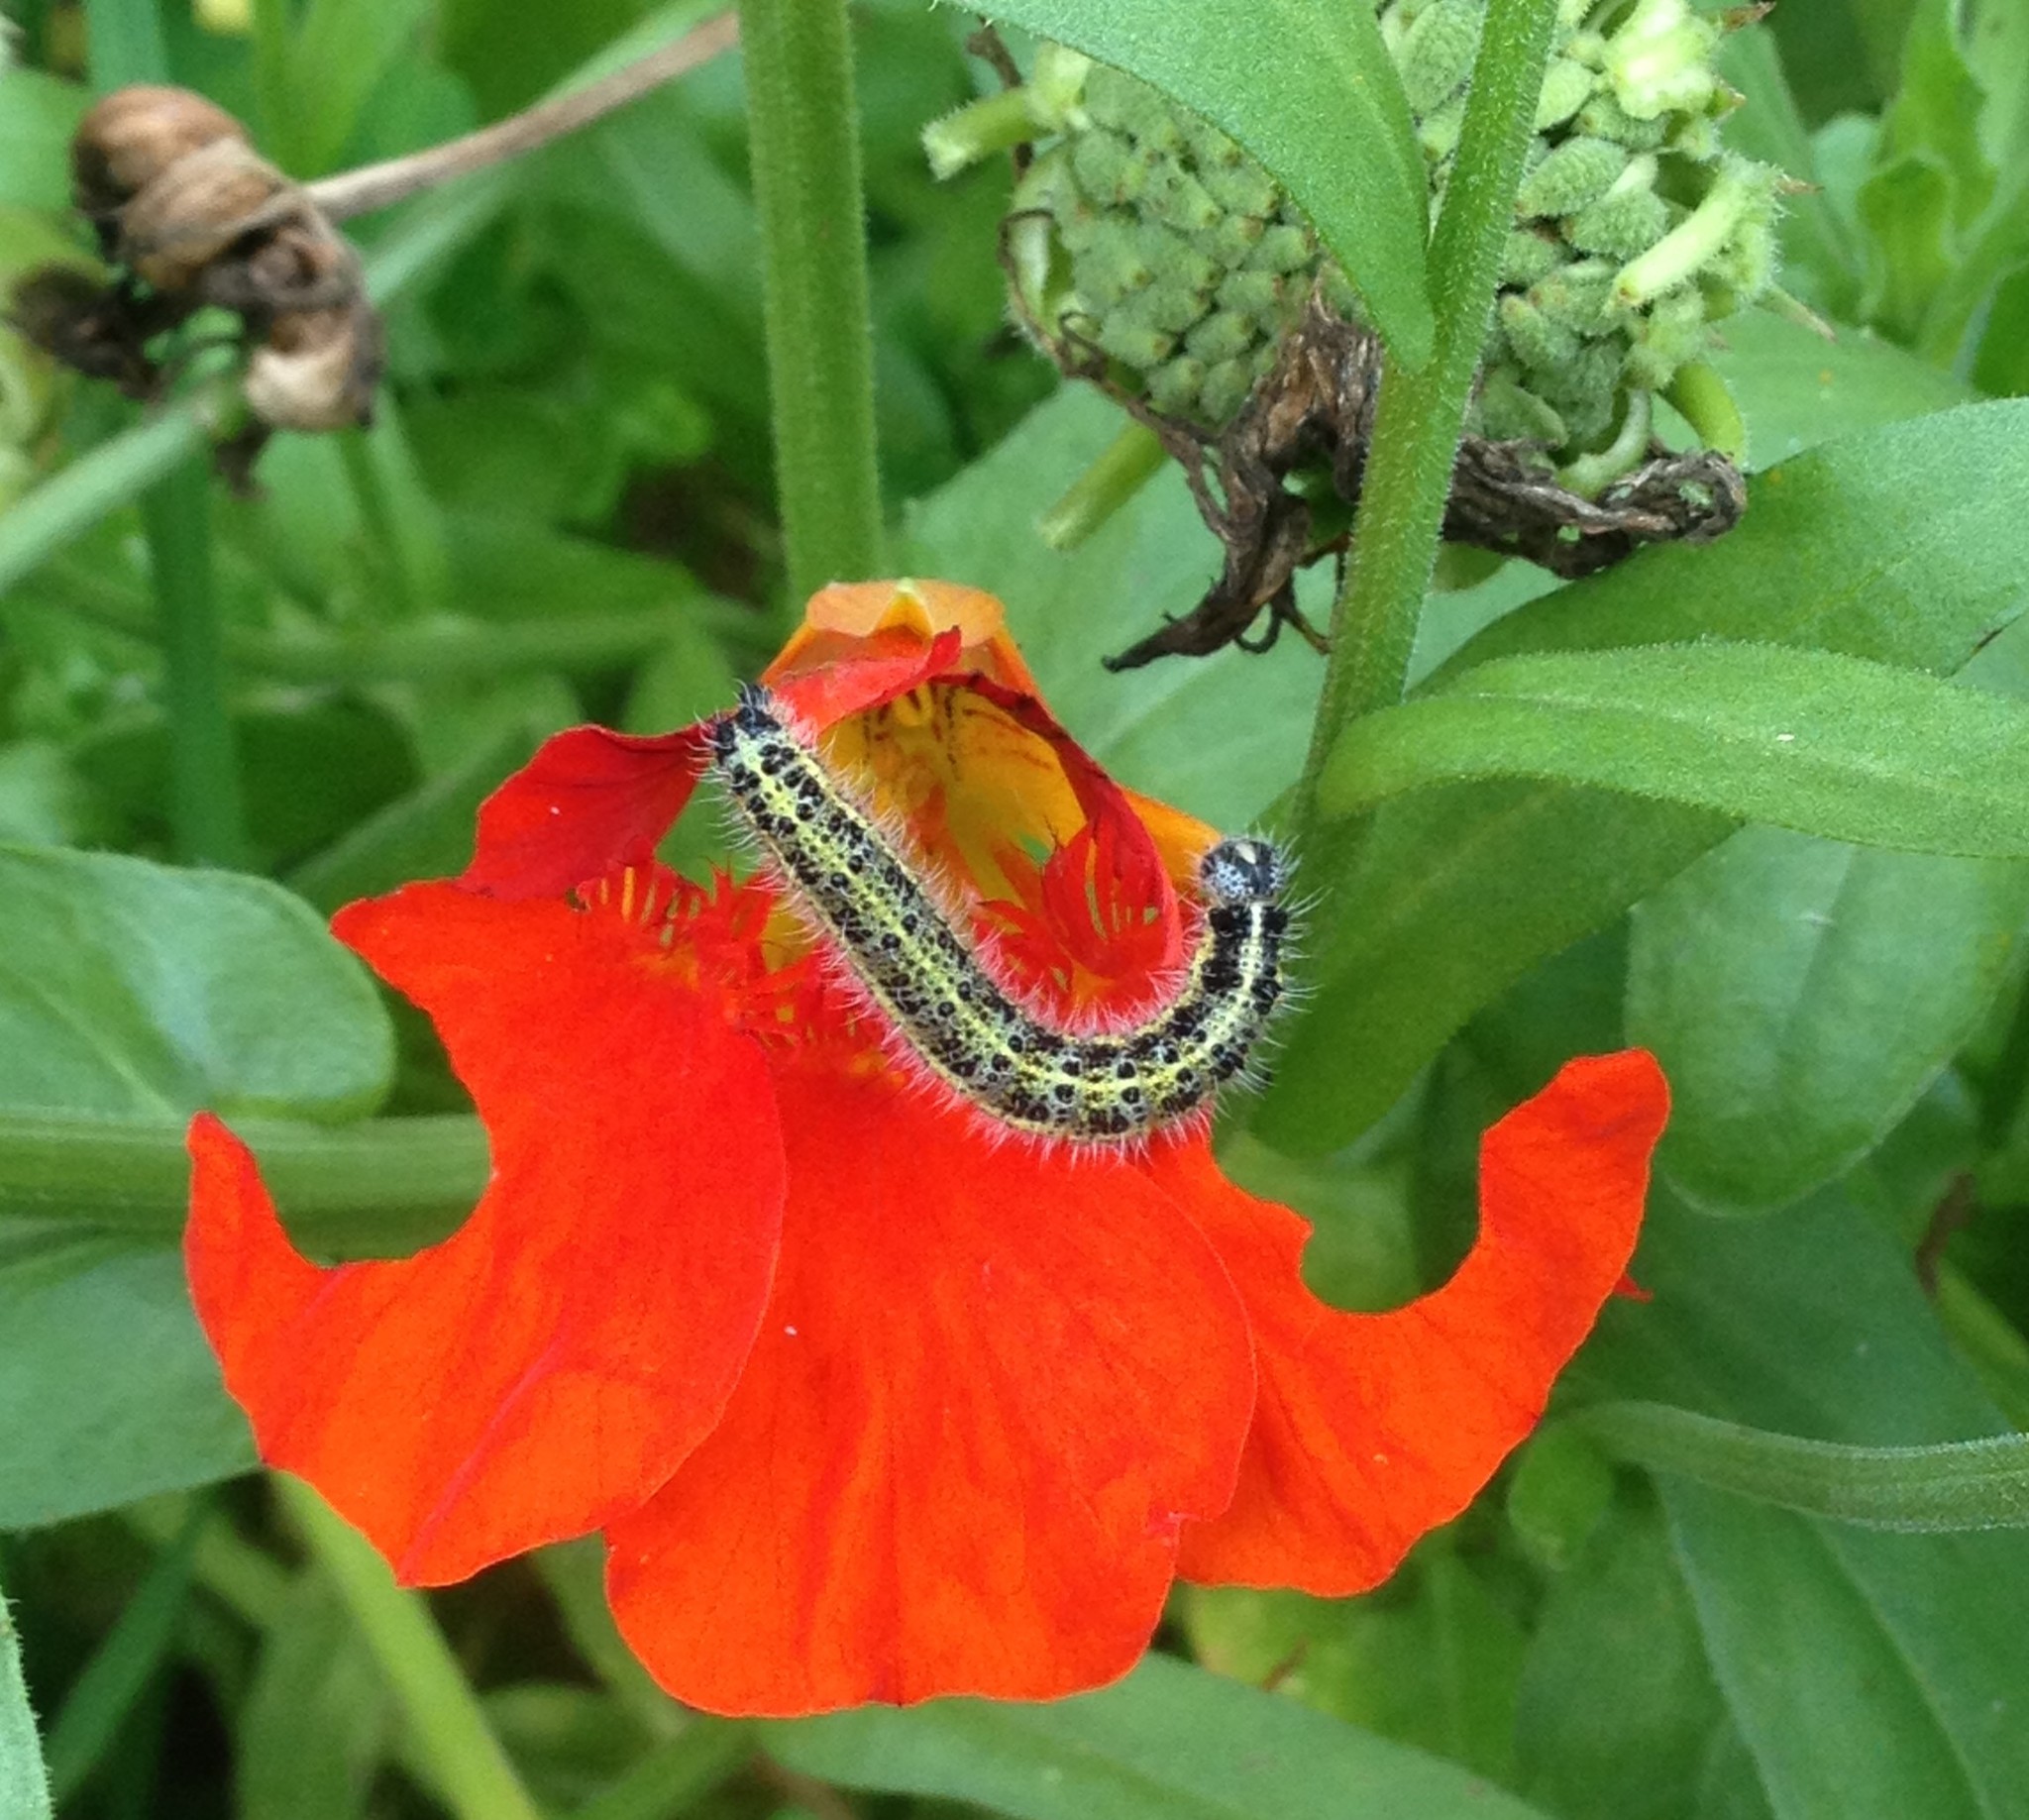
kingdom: Animalia
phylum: Arthropoda
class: Insecta
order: Lepidoptera
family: Pieridae
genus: Pieris
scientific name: Pieris brassicae
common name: Large white
